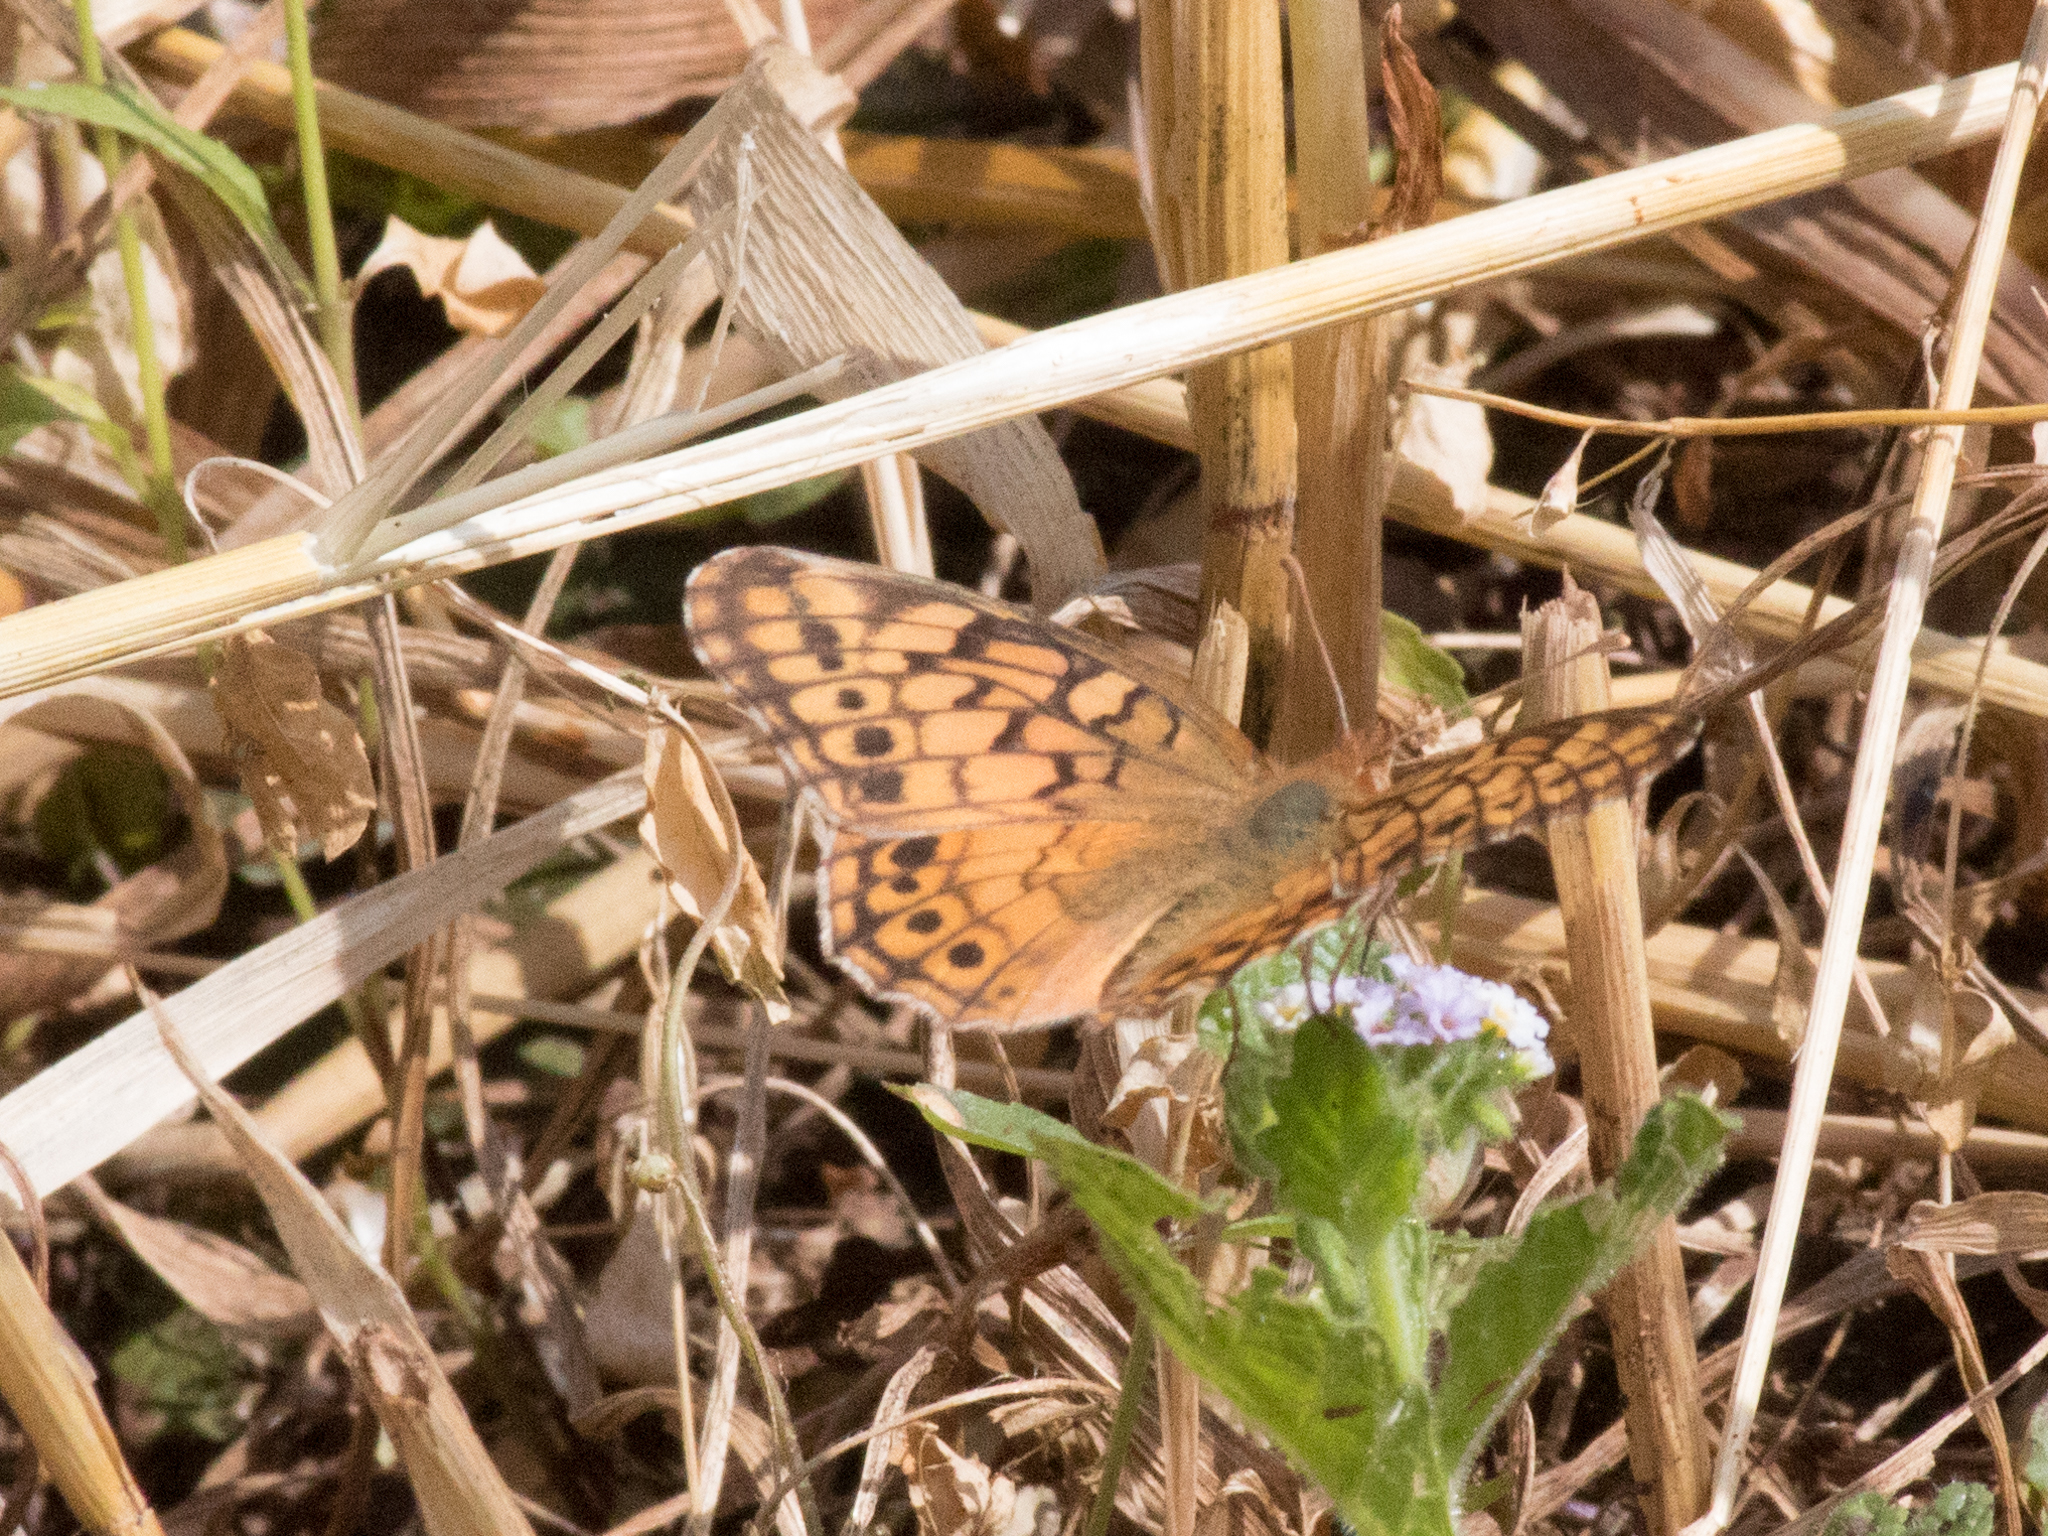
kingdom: Animalia
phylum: Arthropoda
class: Insecta
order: Lepidoptera
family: Nymphalidae
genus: Euptoieta
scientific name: Euptoieta hortensia
